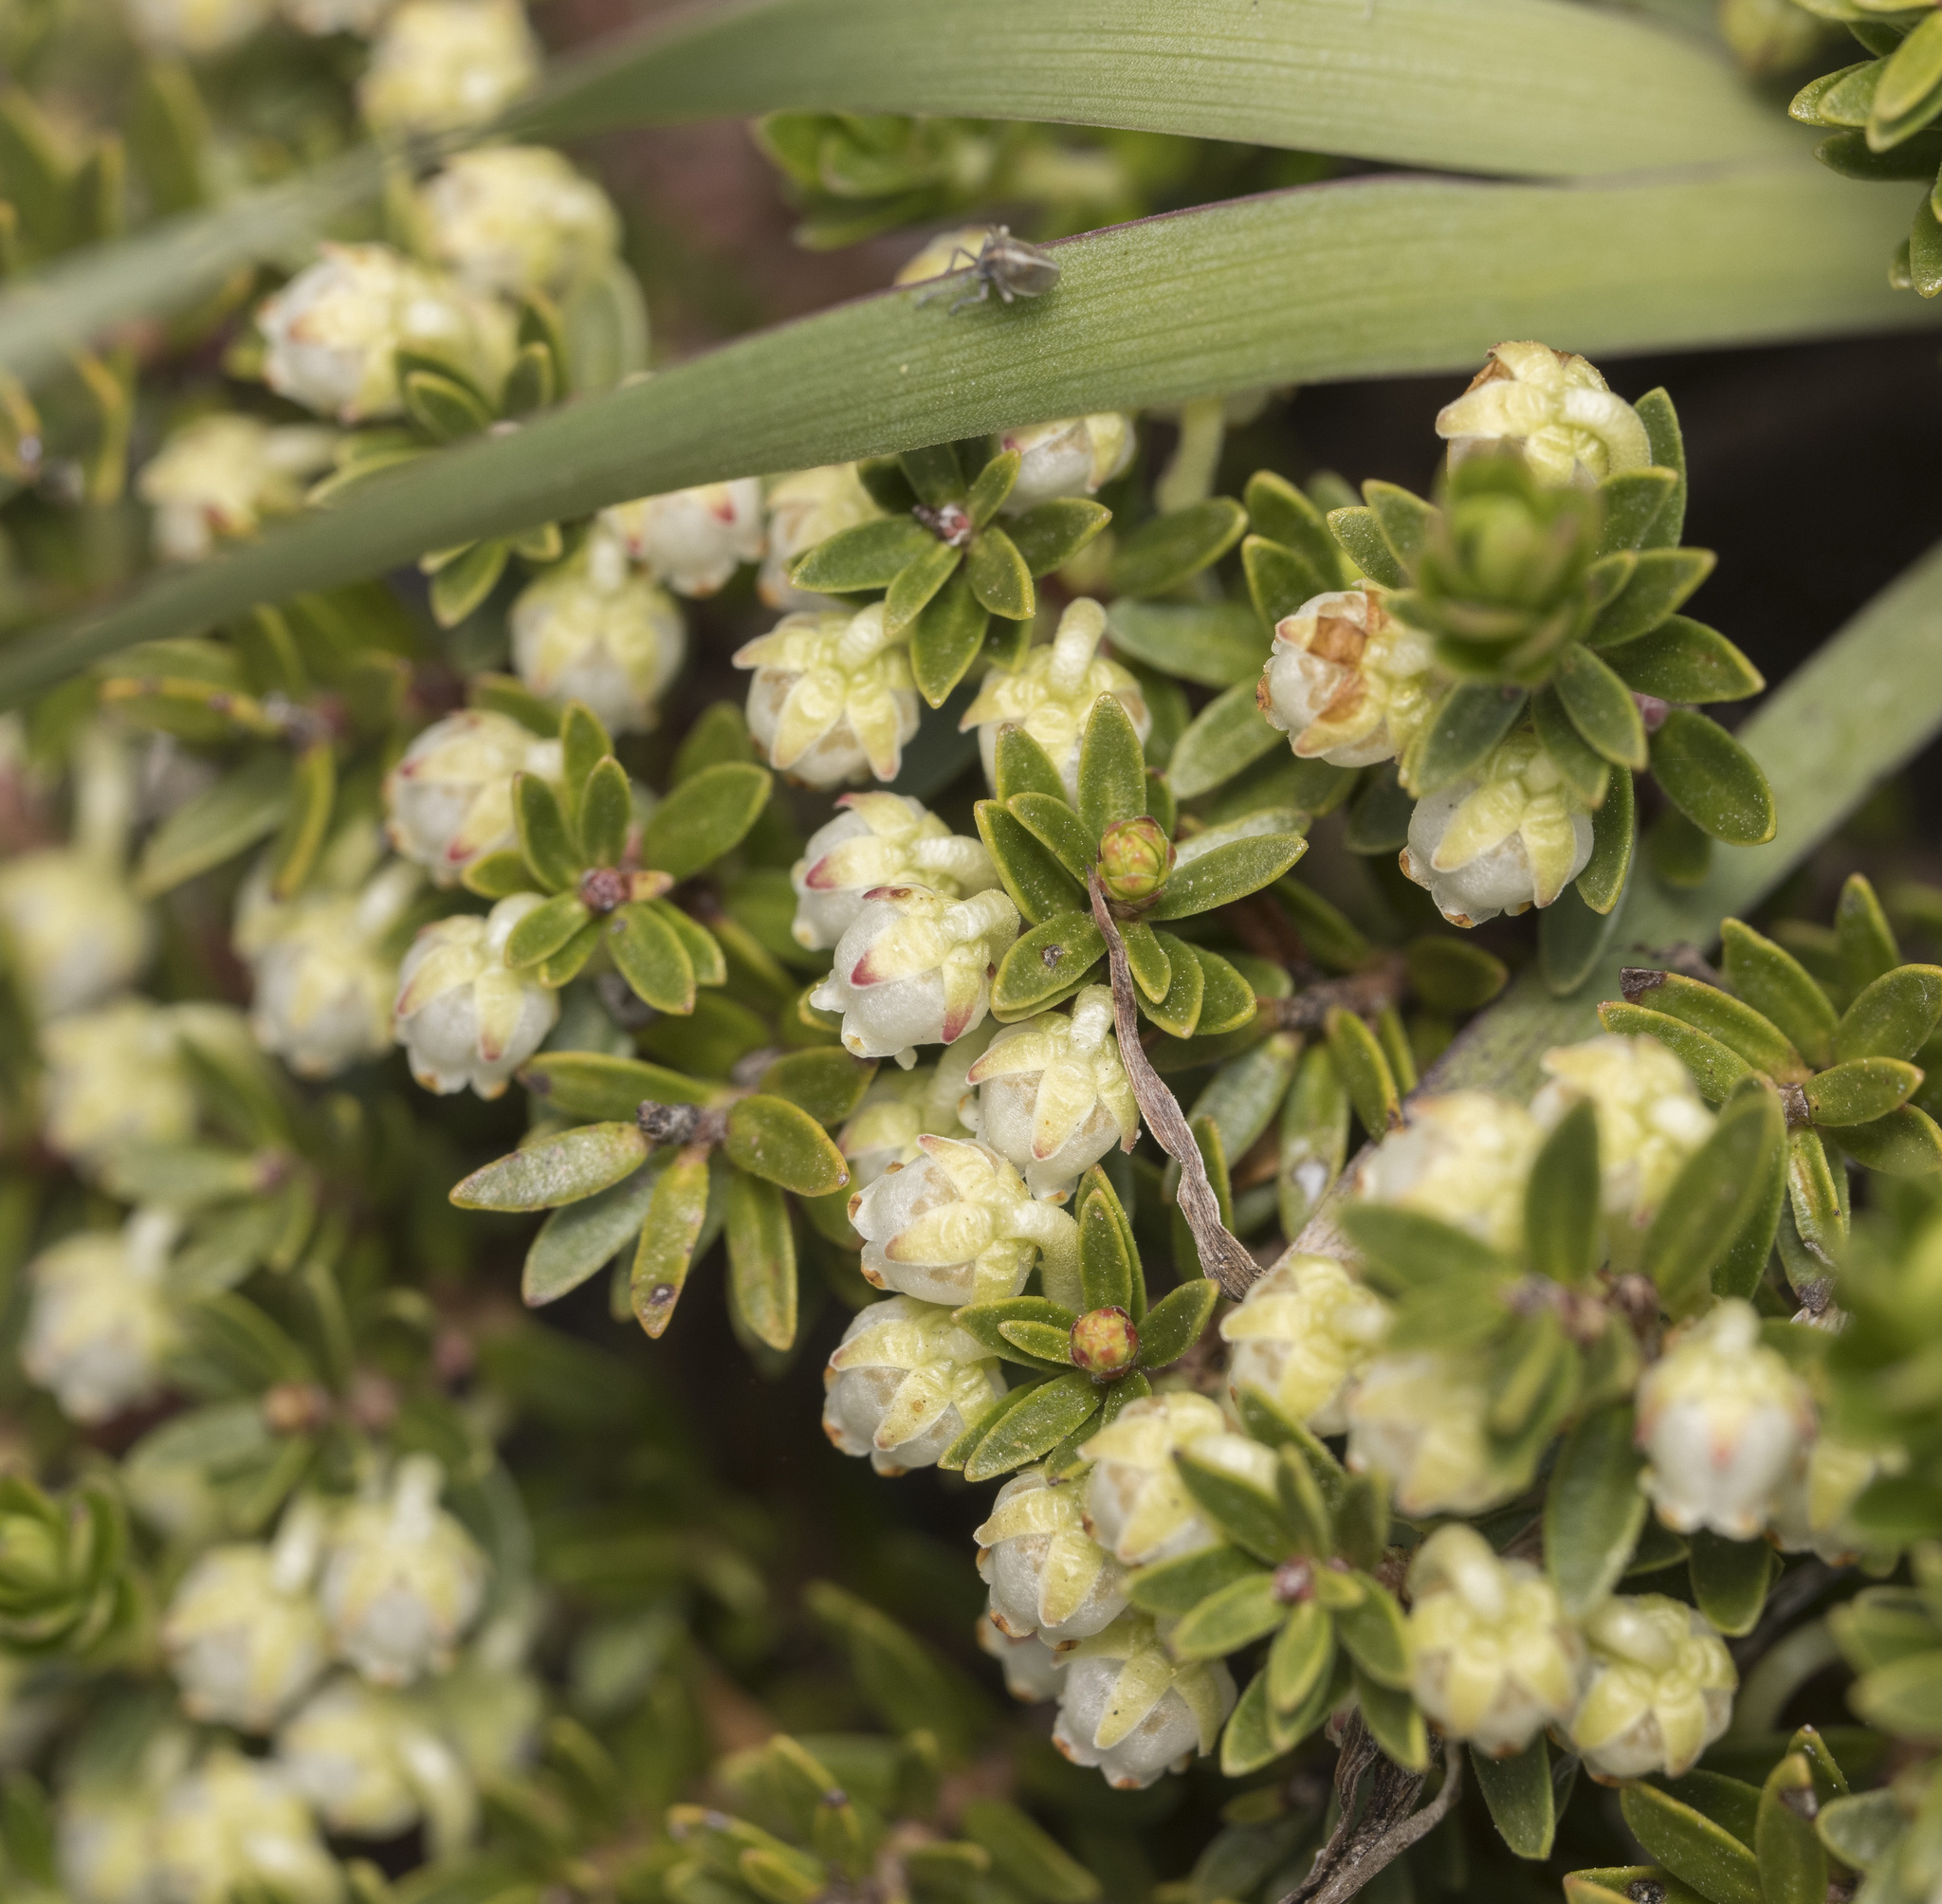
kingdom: Plantae
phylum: Tracheophyta
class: Magnoliopsida
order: Ericales
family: Ericaceae
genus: Gaultheria
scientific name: Gaultheria pumila
